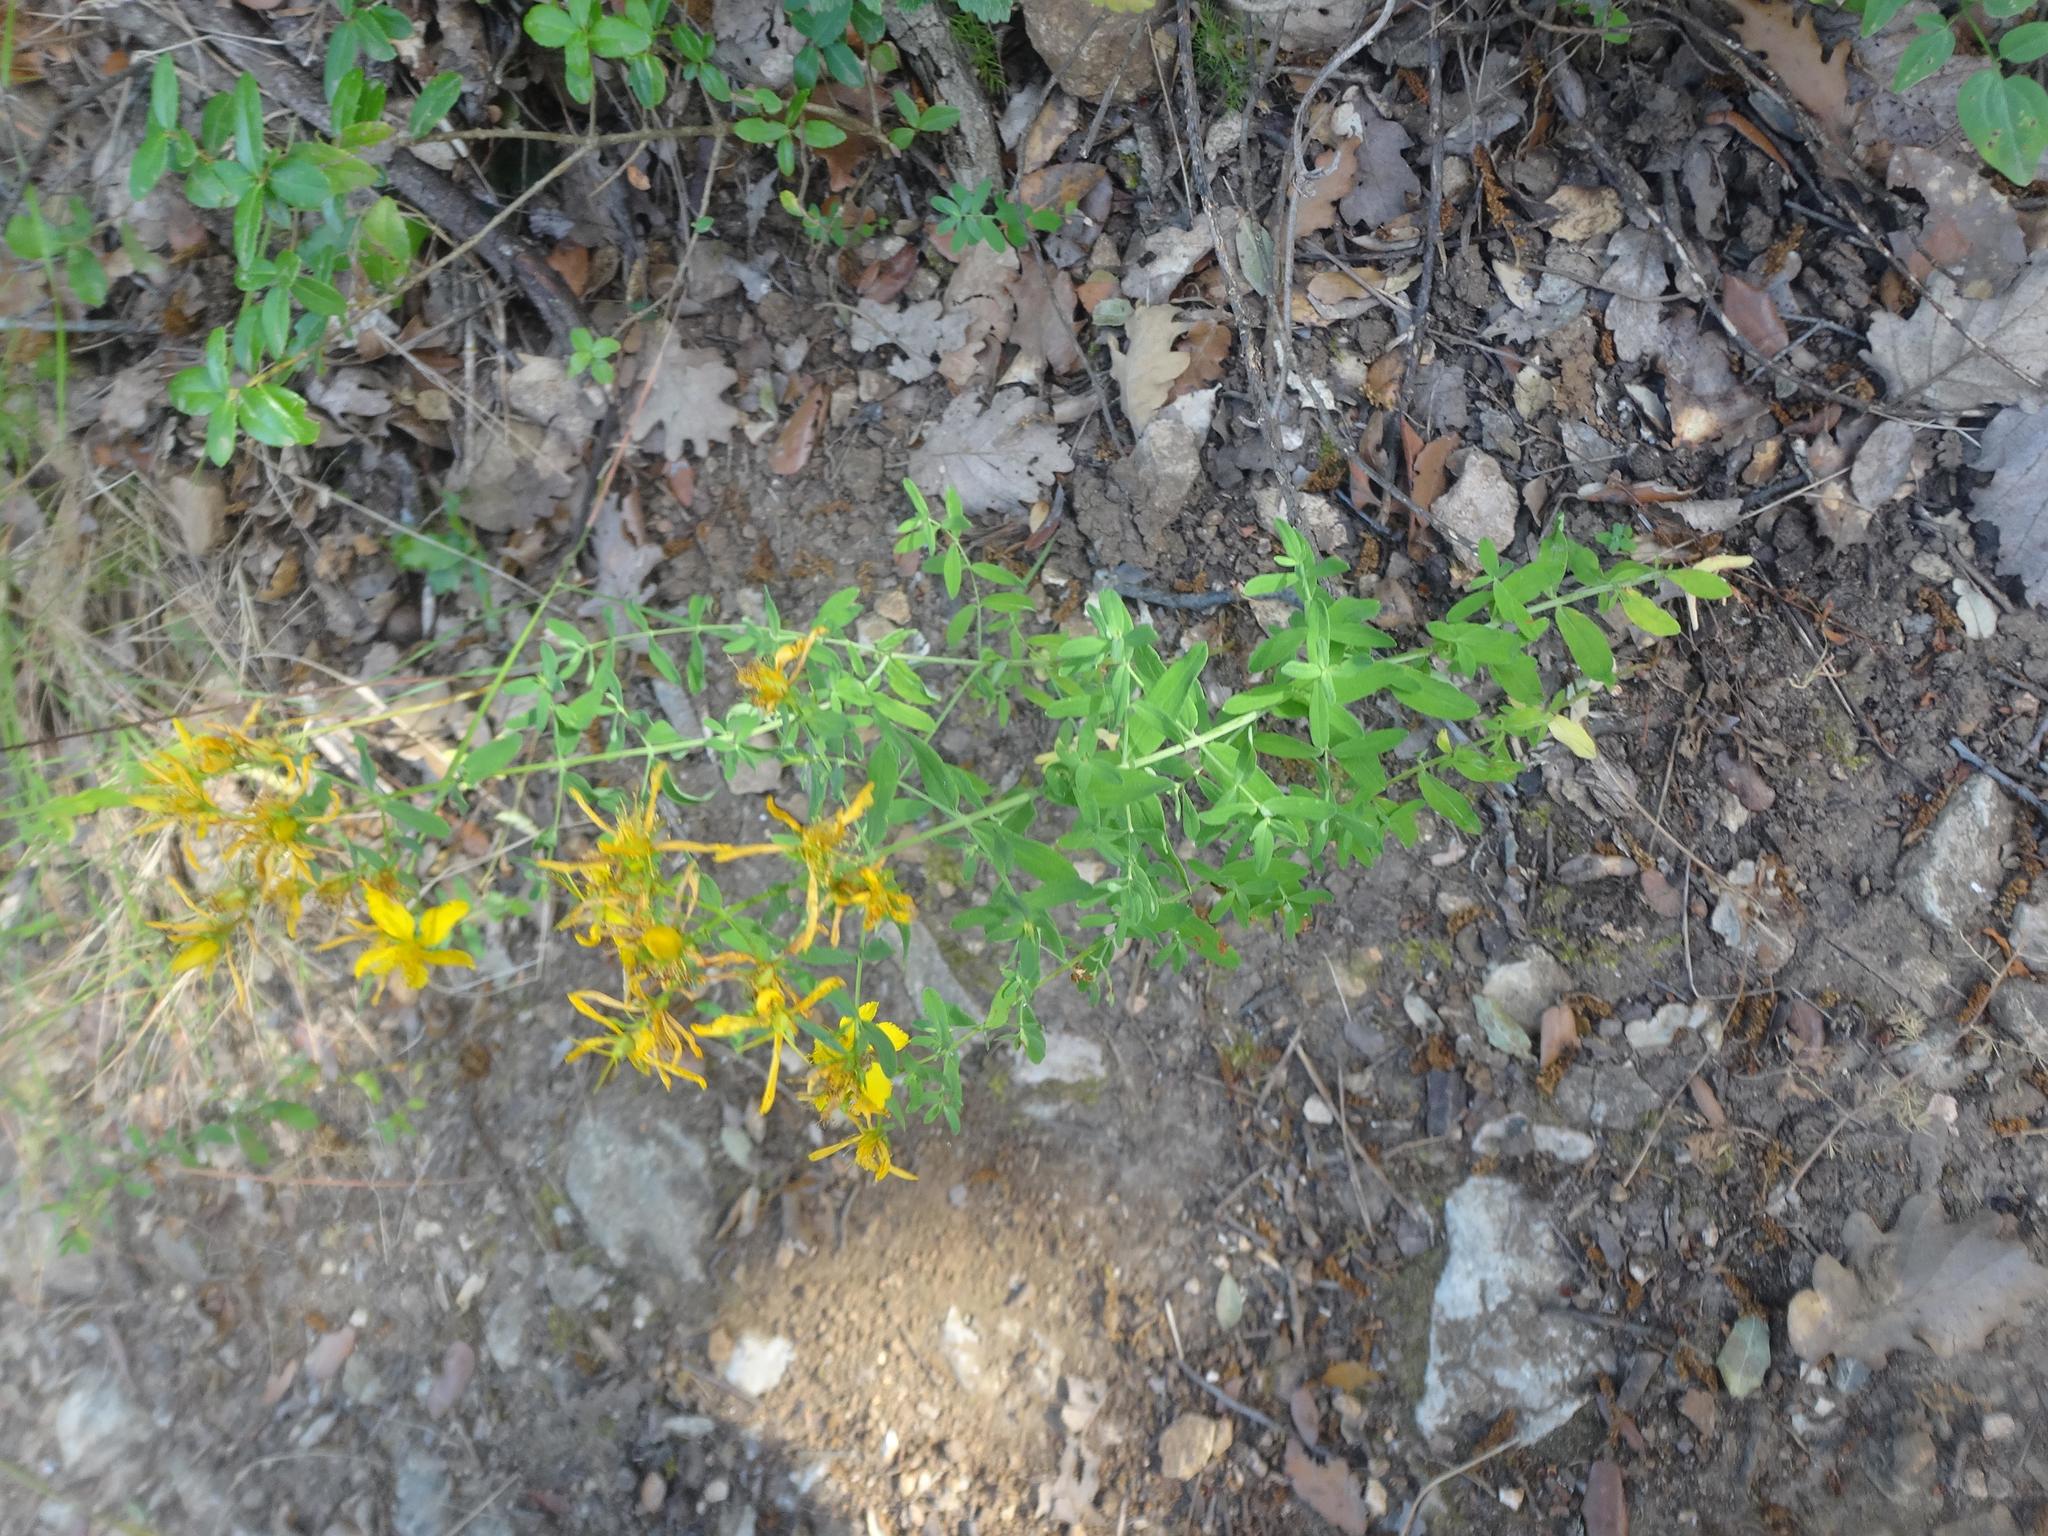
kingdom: Plantae
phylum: Tracheophyta
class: Magnoliopsida
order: Malpighiales
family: Hypericaceae
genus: Hypericum
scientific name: Hypericum perforatum
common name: Common st. johnswort
